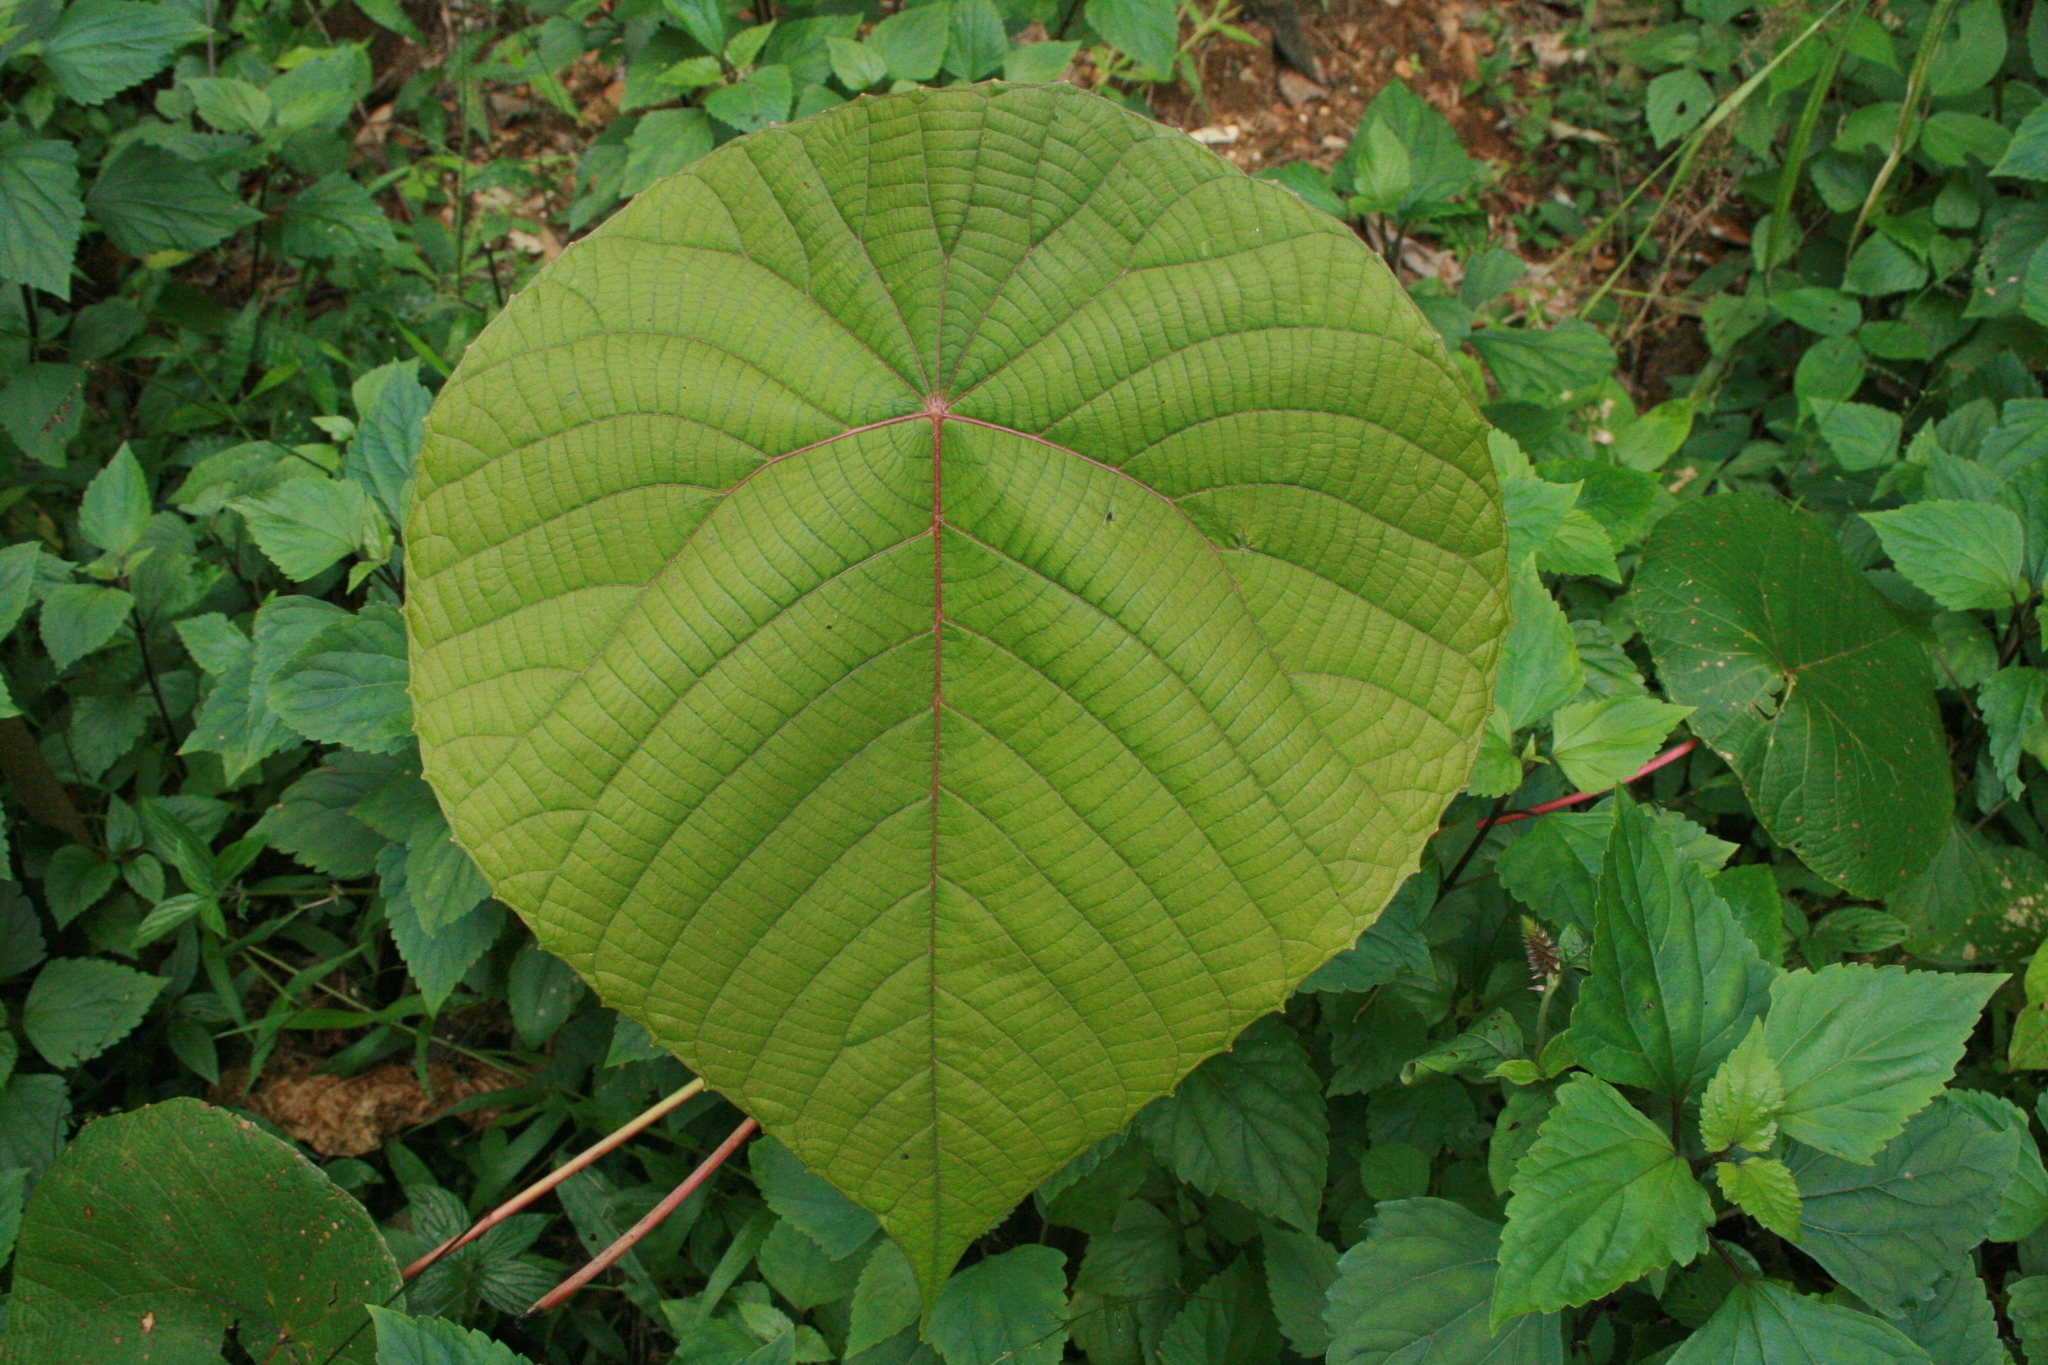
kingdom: Plantae
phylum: Tracheophyta
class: Magnoliopsida
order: Malpighiales
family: Euphorbiaceae
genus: Macaranga
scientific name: Macaranga peltata
